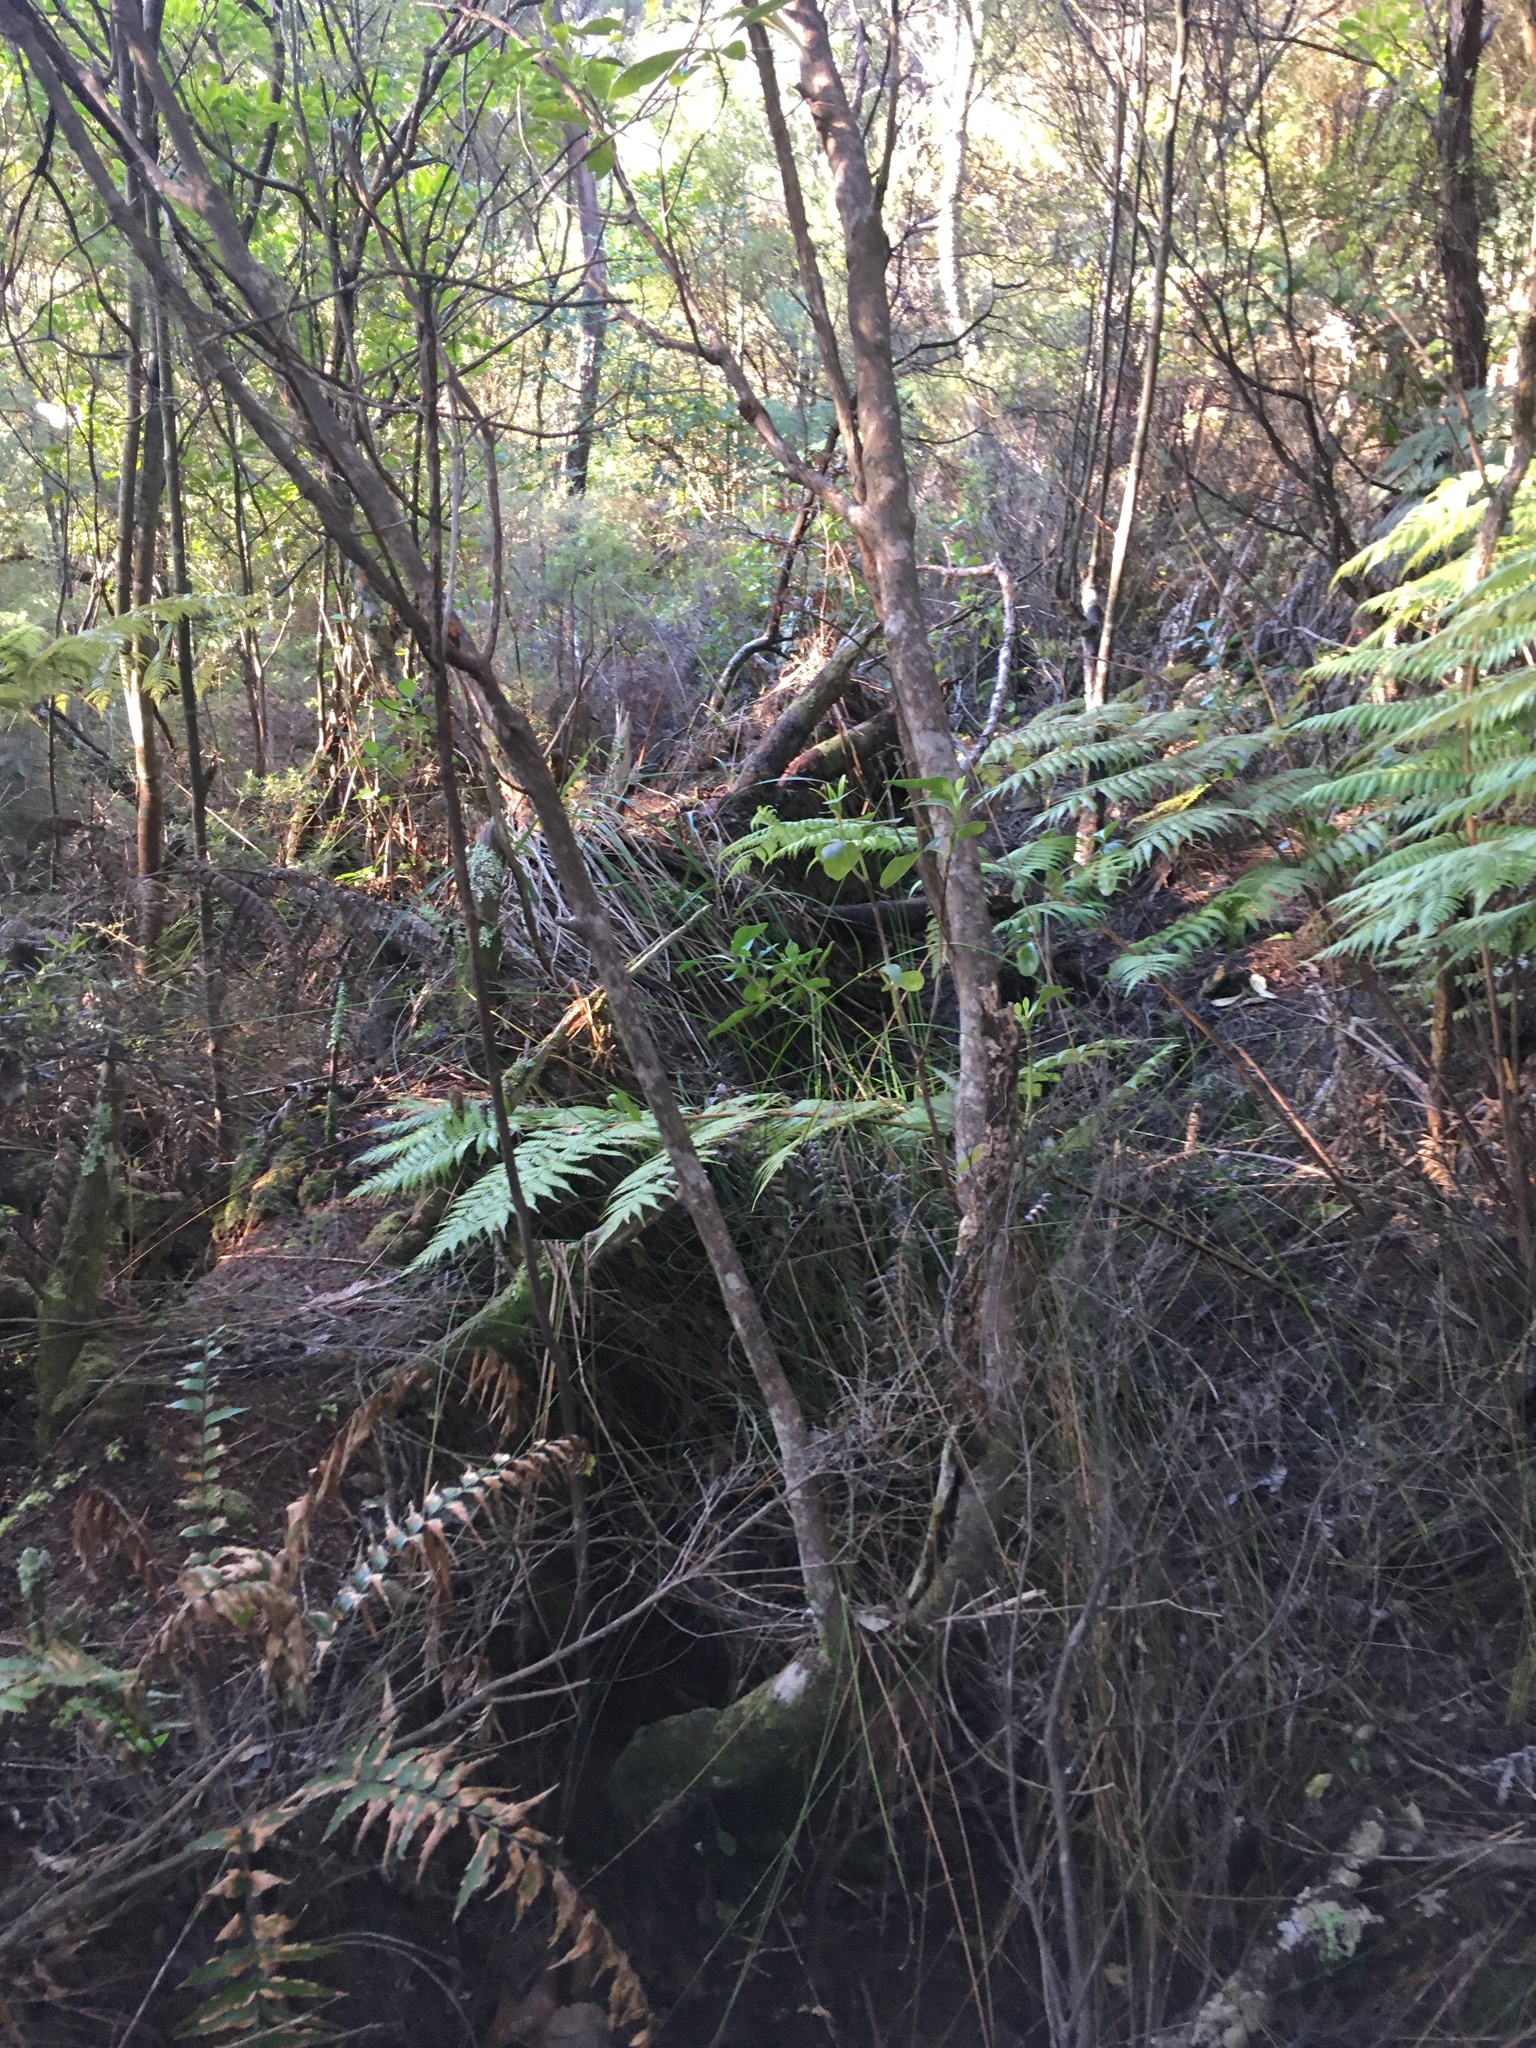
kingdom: Plantae
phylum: Tracheophyta
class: Polypodiopsida
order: Polypodiales
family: Aspleniaceae
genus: Asplenium
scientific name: Asplenium polyodon
